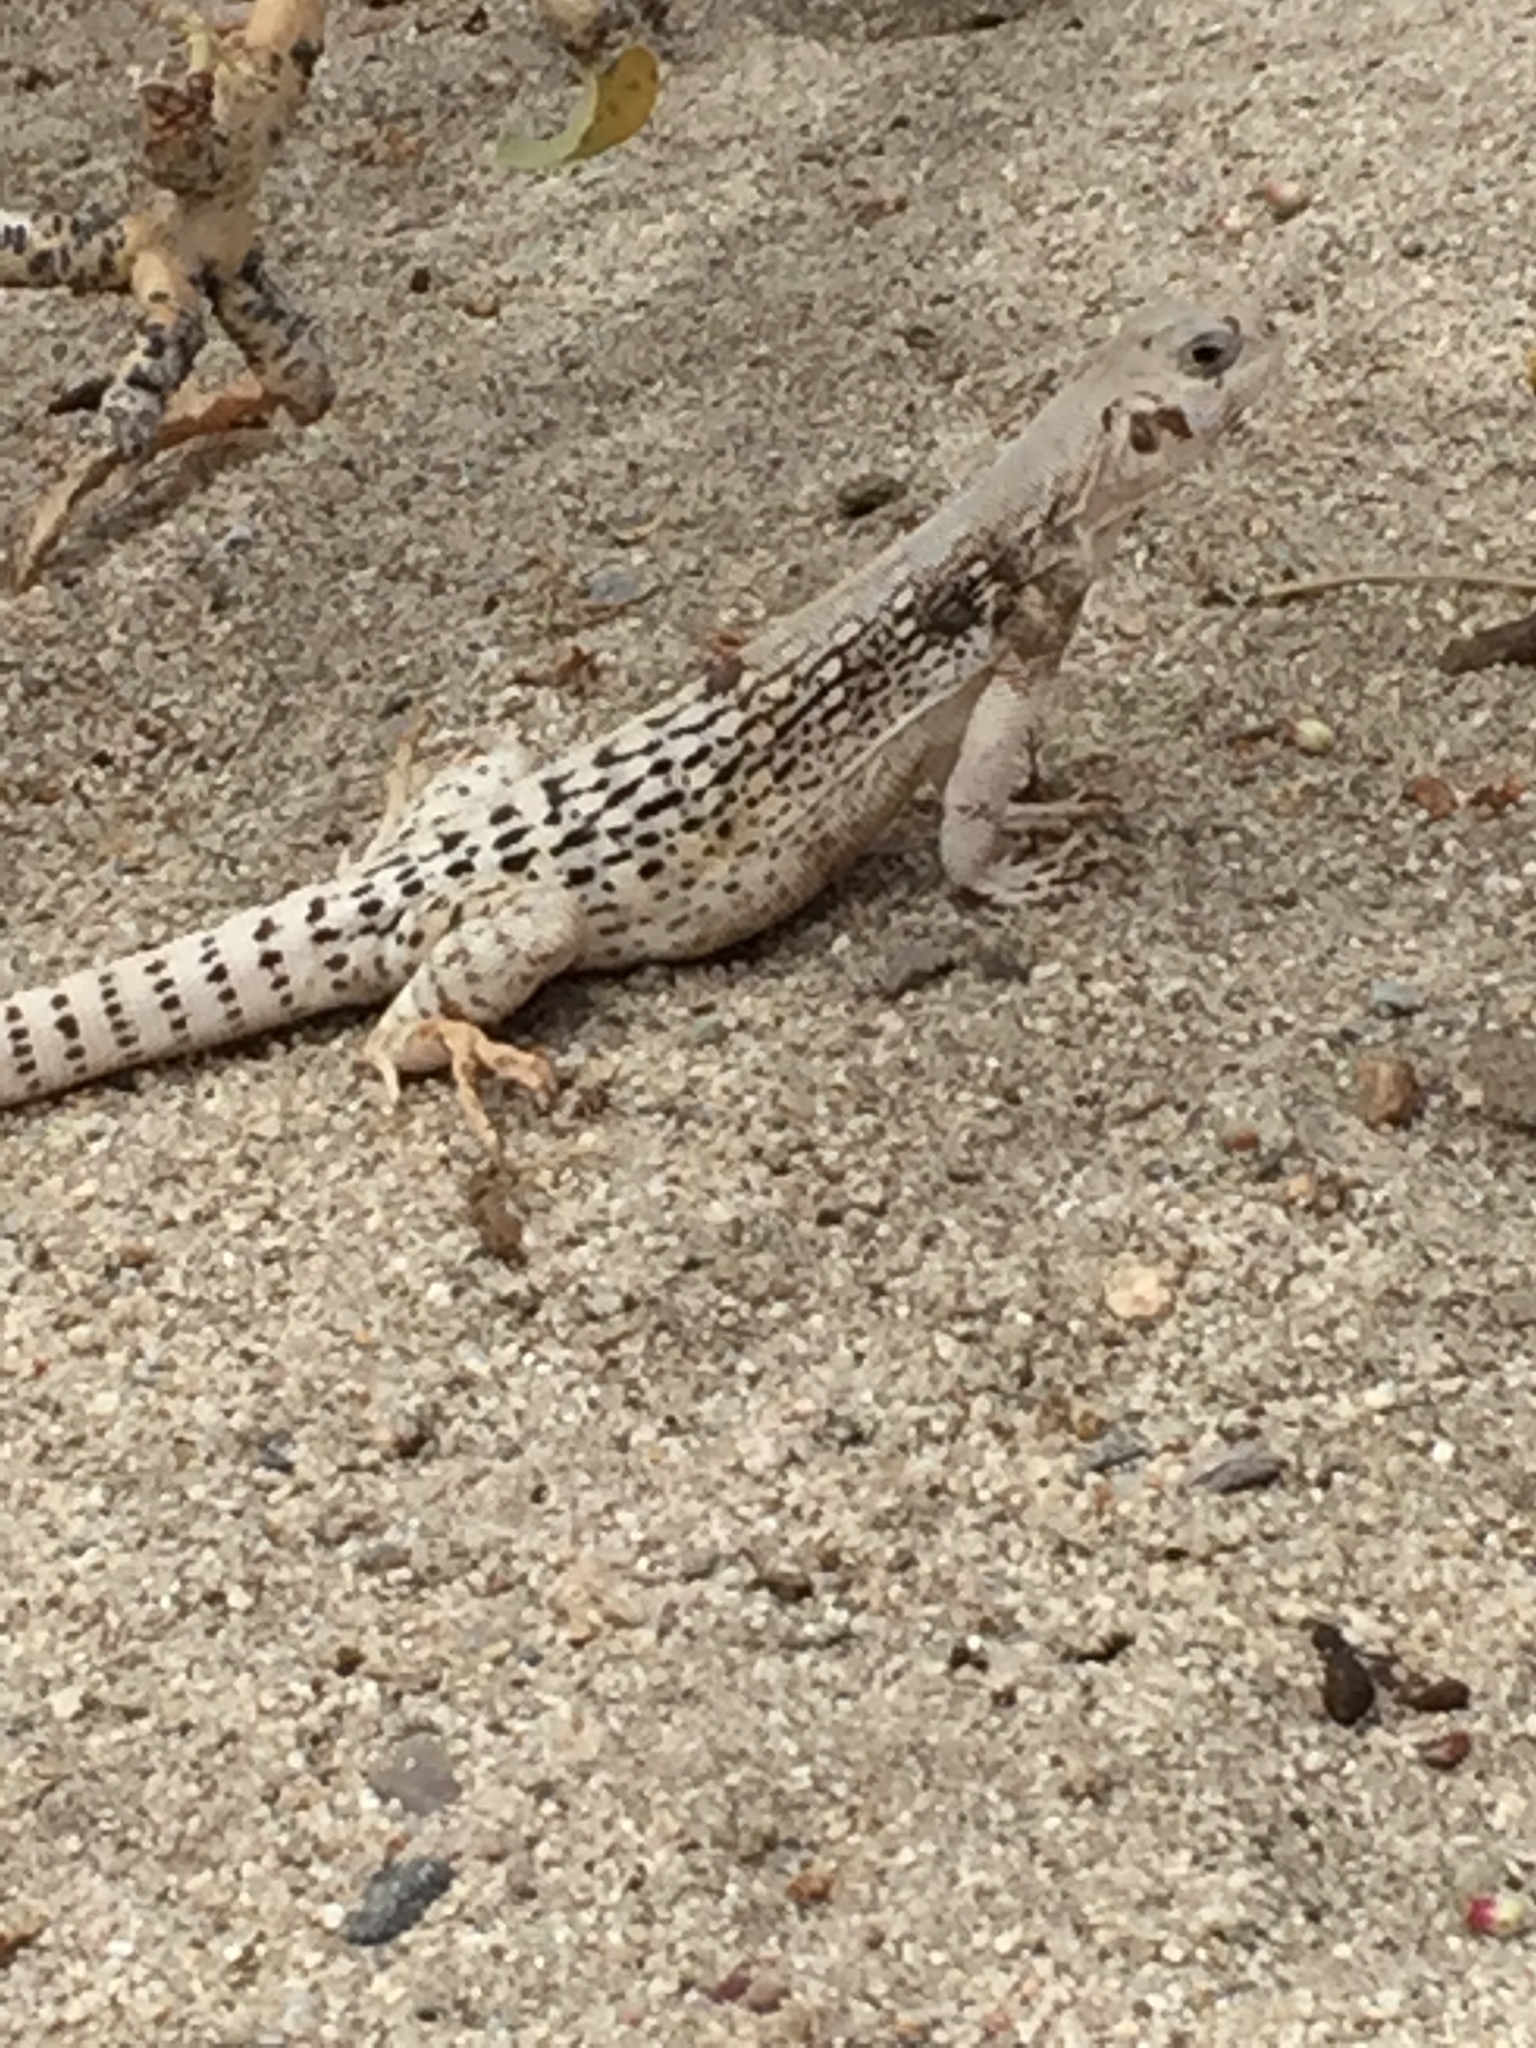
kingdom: Animalia
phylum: Chordata
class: Squamata
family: Iguanidae
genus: Dipsosaurus
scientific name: Dipsosaurus dorsalis
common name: Desert iguana
